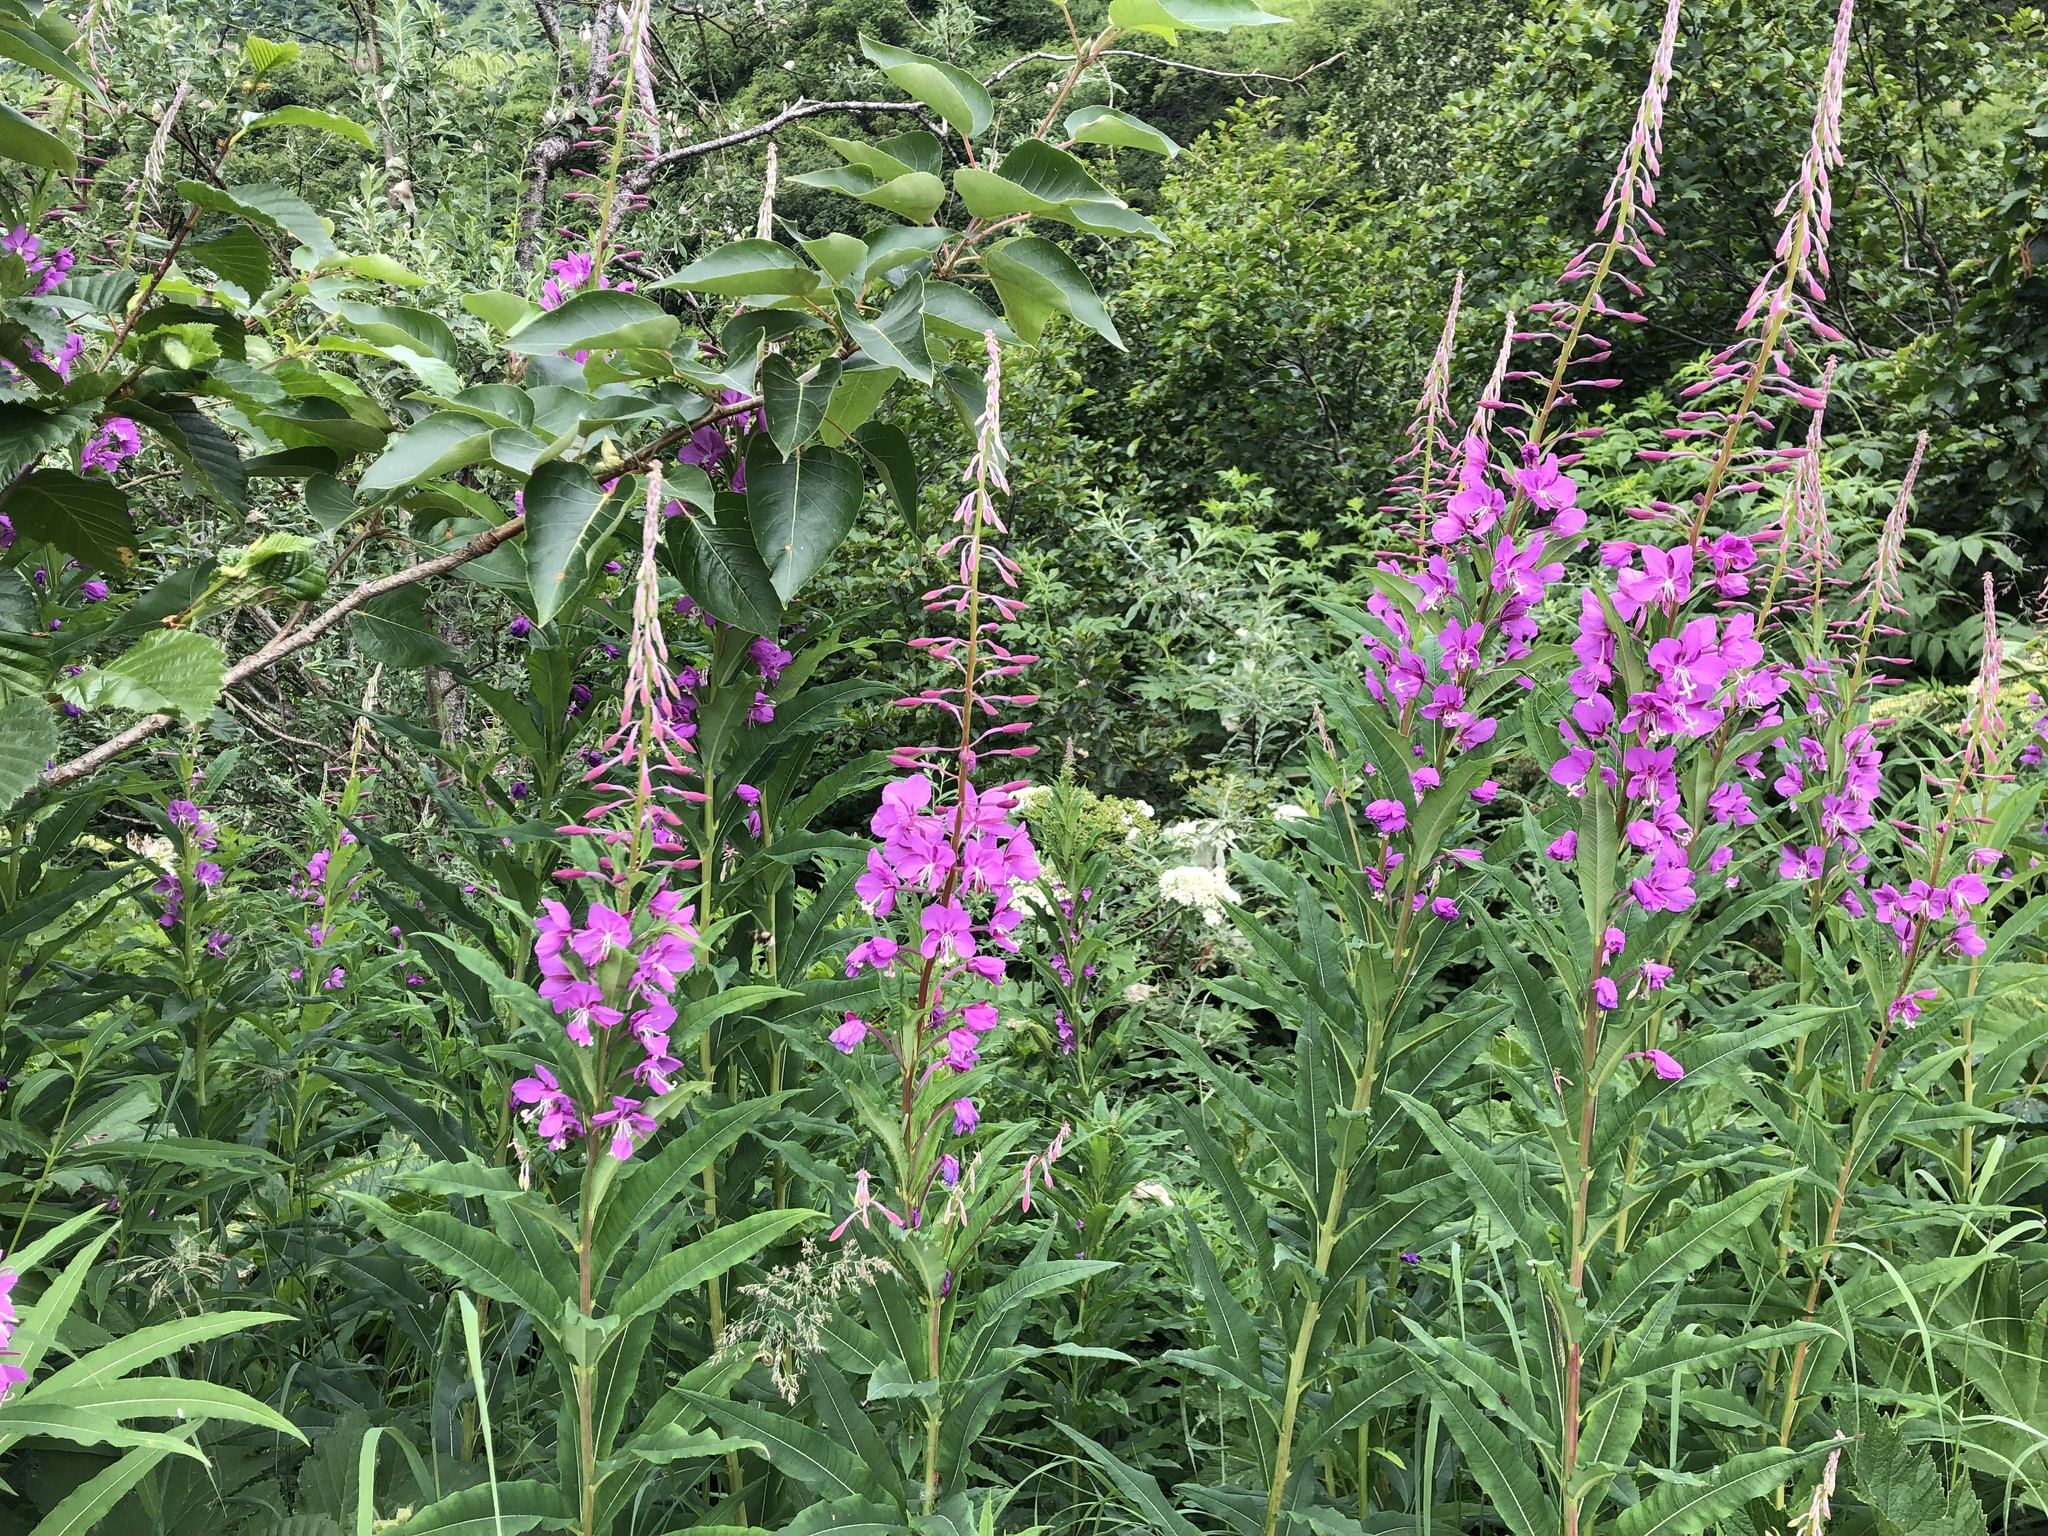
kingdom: Plantae
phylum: Tracheophyta
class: Magnoliopsida
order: Myrtales
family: Onagraceae
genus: Chamaenerion
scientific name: Chamaenerion angustifolium
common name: Fireweed
